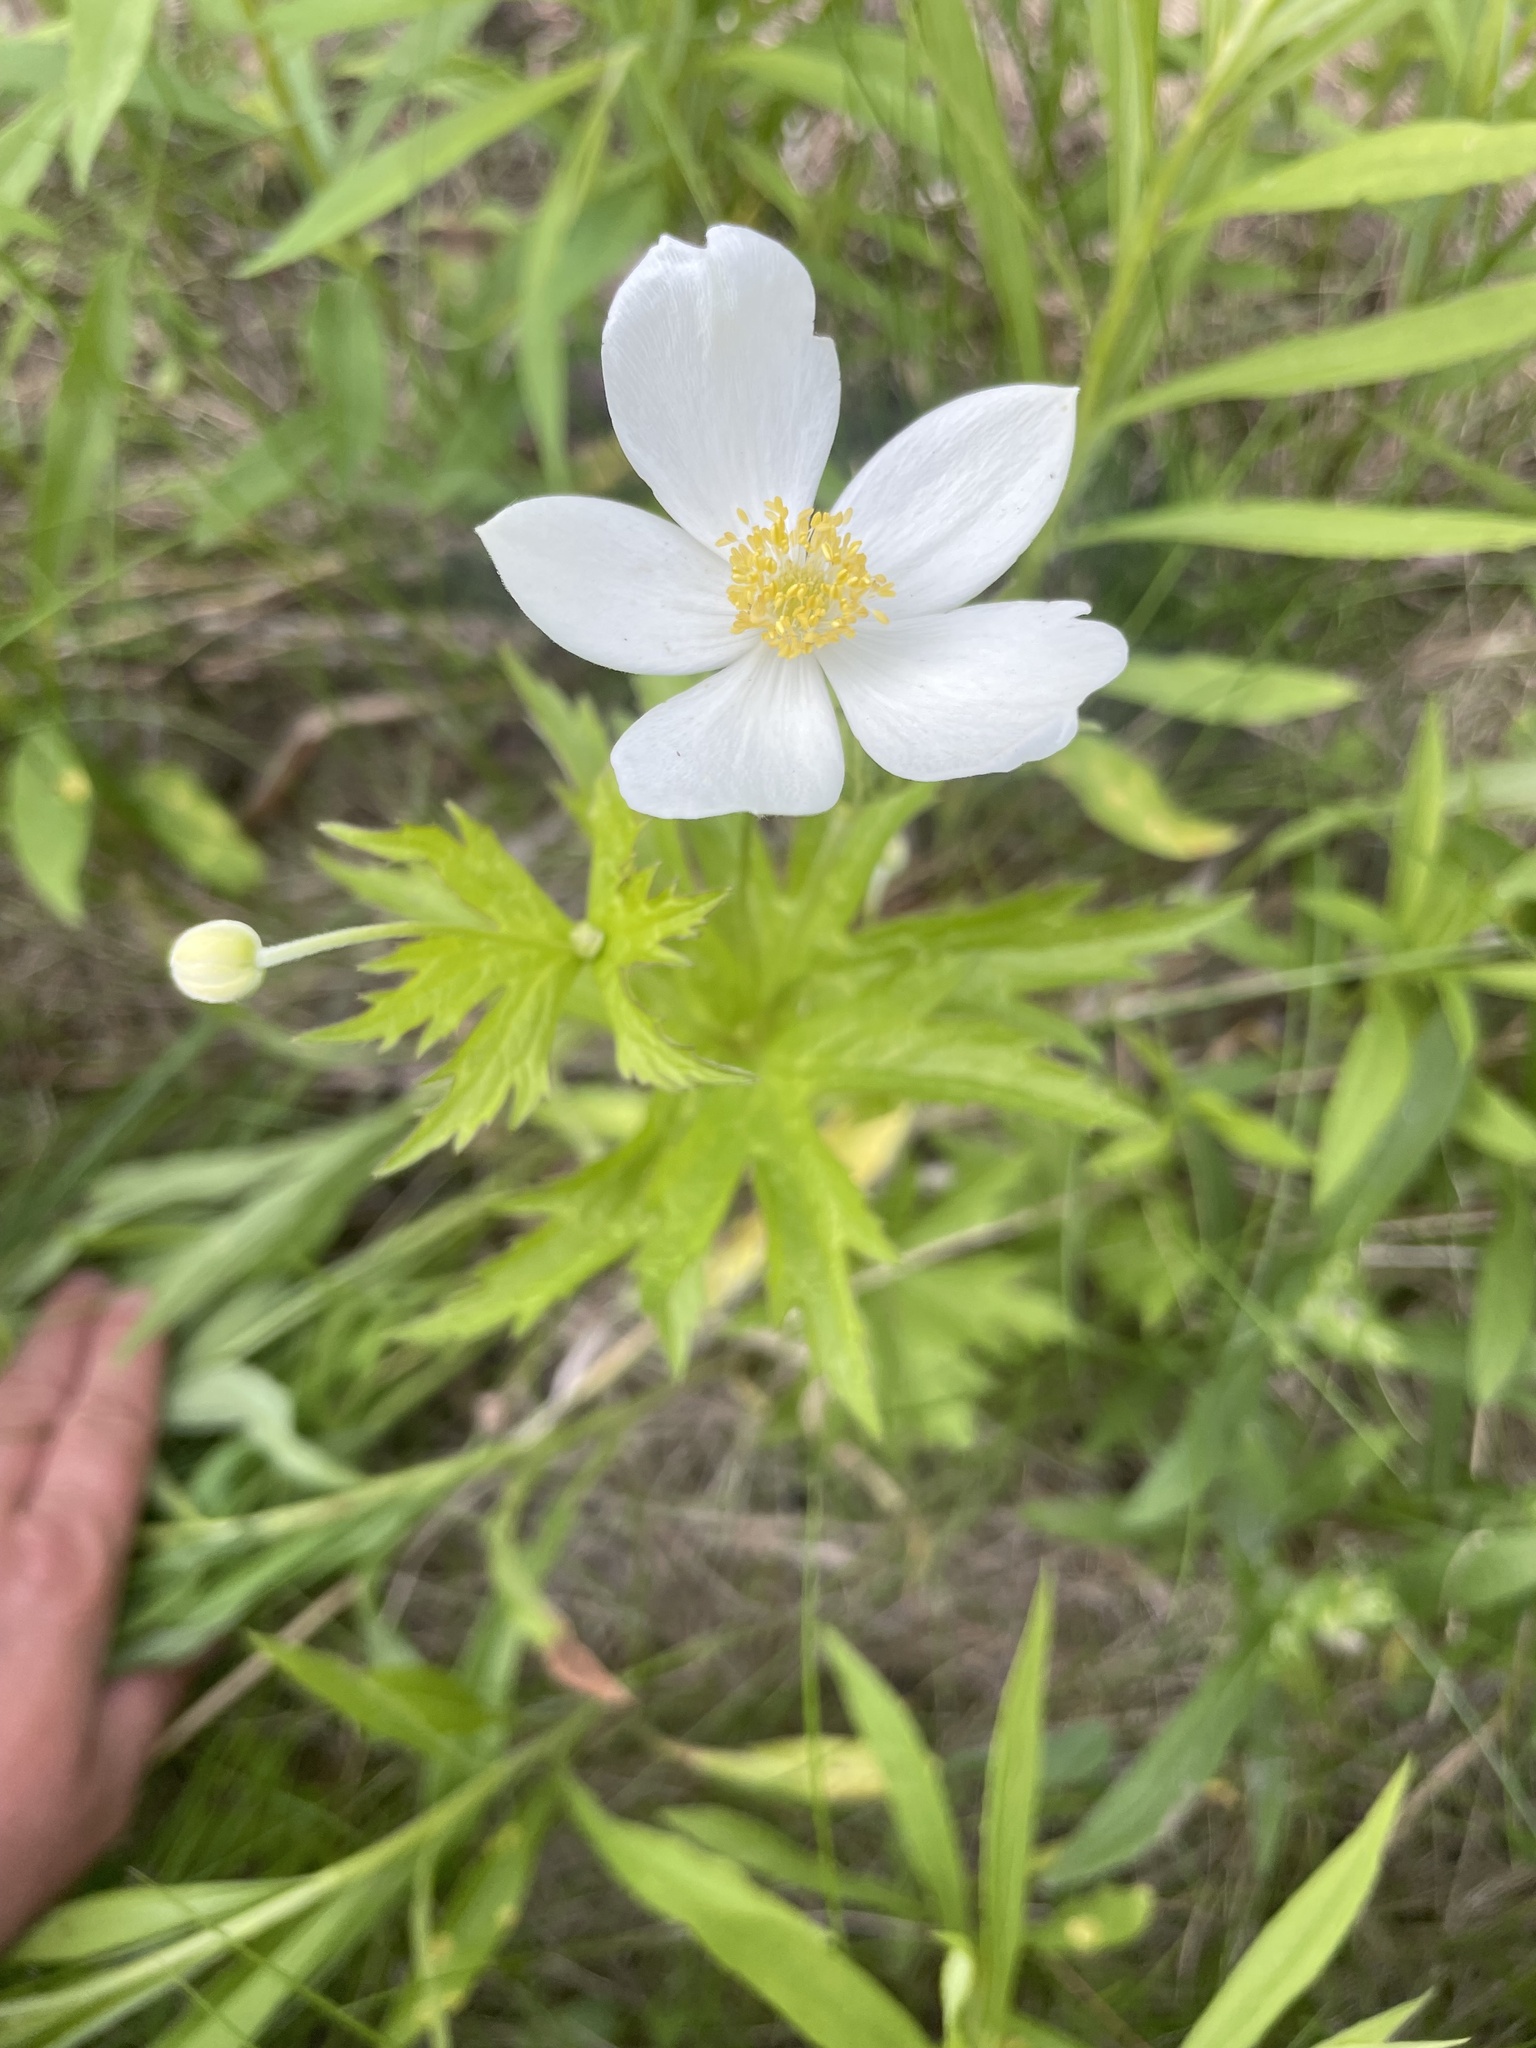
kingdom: Plantae
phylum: Tracheophyta
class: Magnoliopsida
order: Ranunculales
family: Ranunculaceae
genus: Anemonastrum
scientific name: Anemonastrum canadense
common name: Canada anemone
